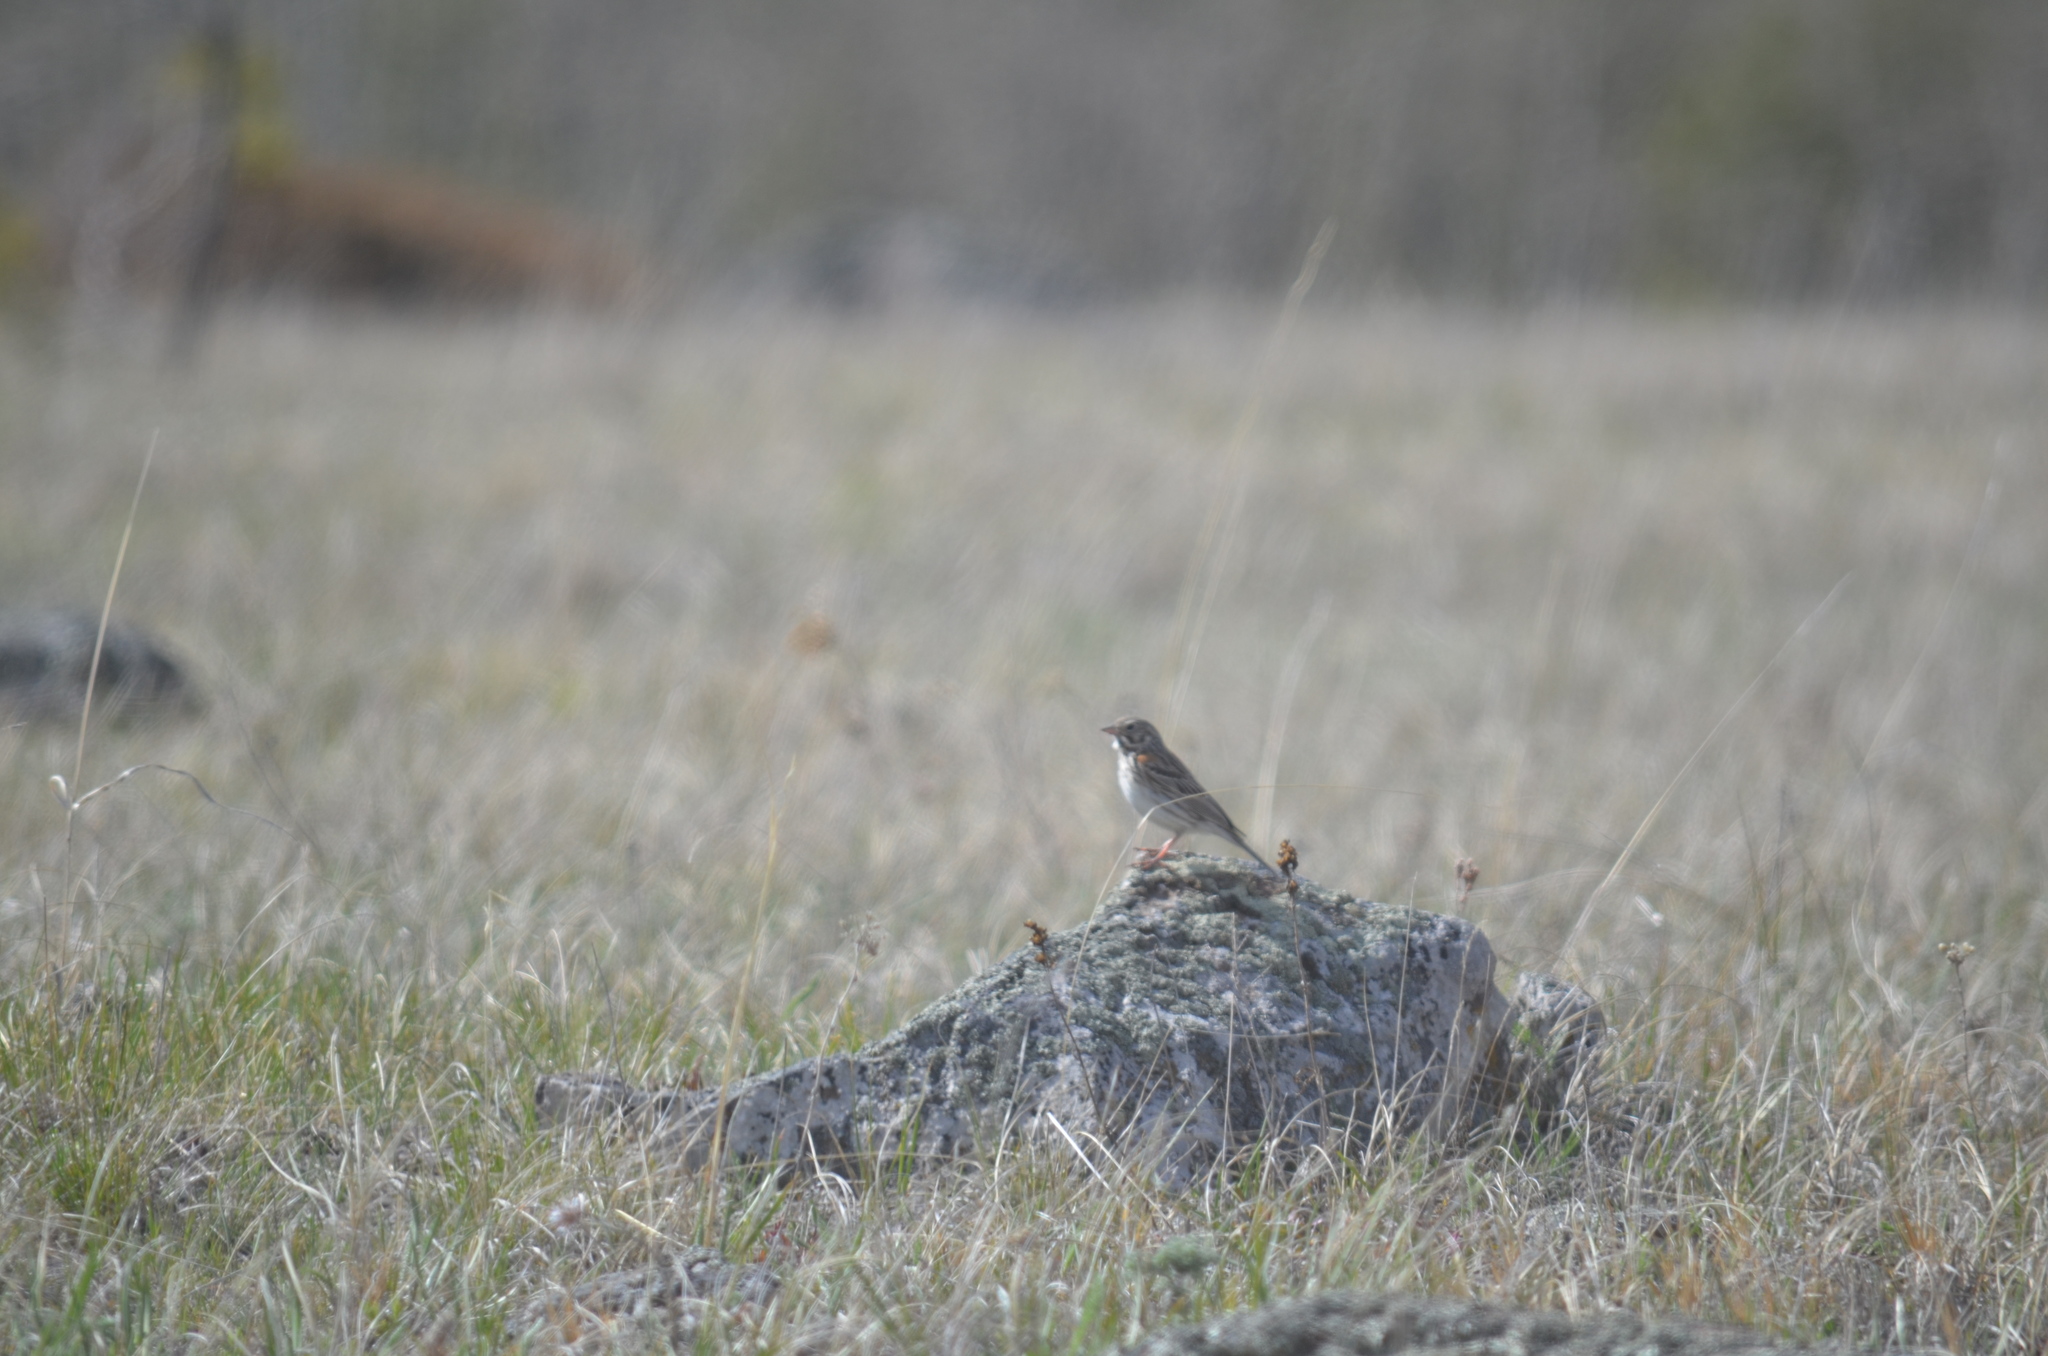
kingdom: Animalia
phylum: Chordata
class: Aves
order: Passeriformes
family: Passerellidae
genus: Pooecetes
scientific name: Pooecetes gramineus
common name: Vesper sparrow
